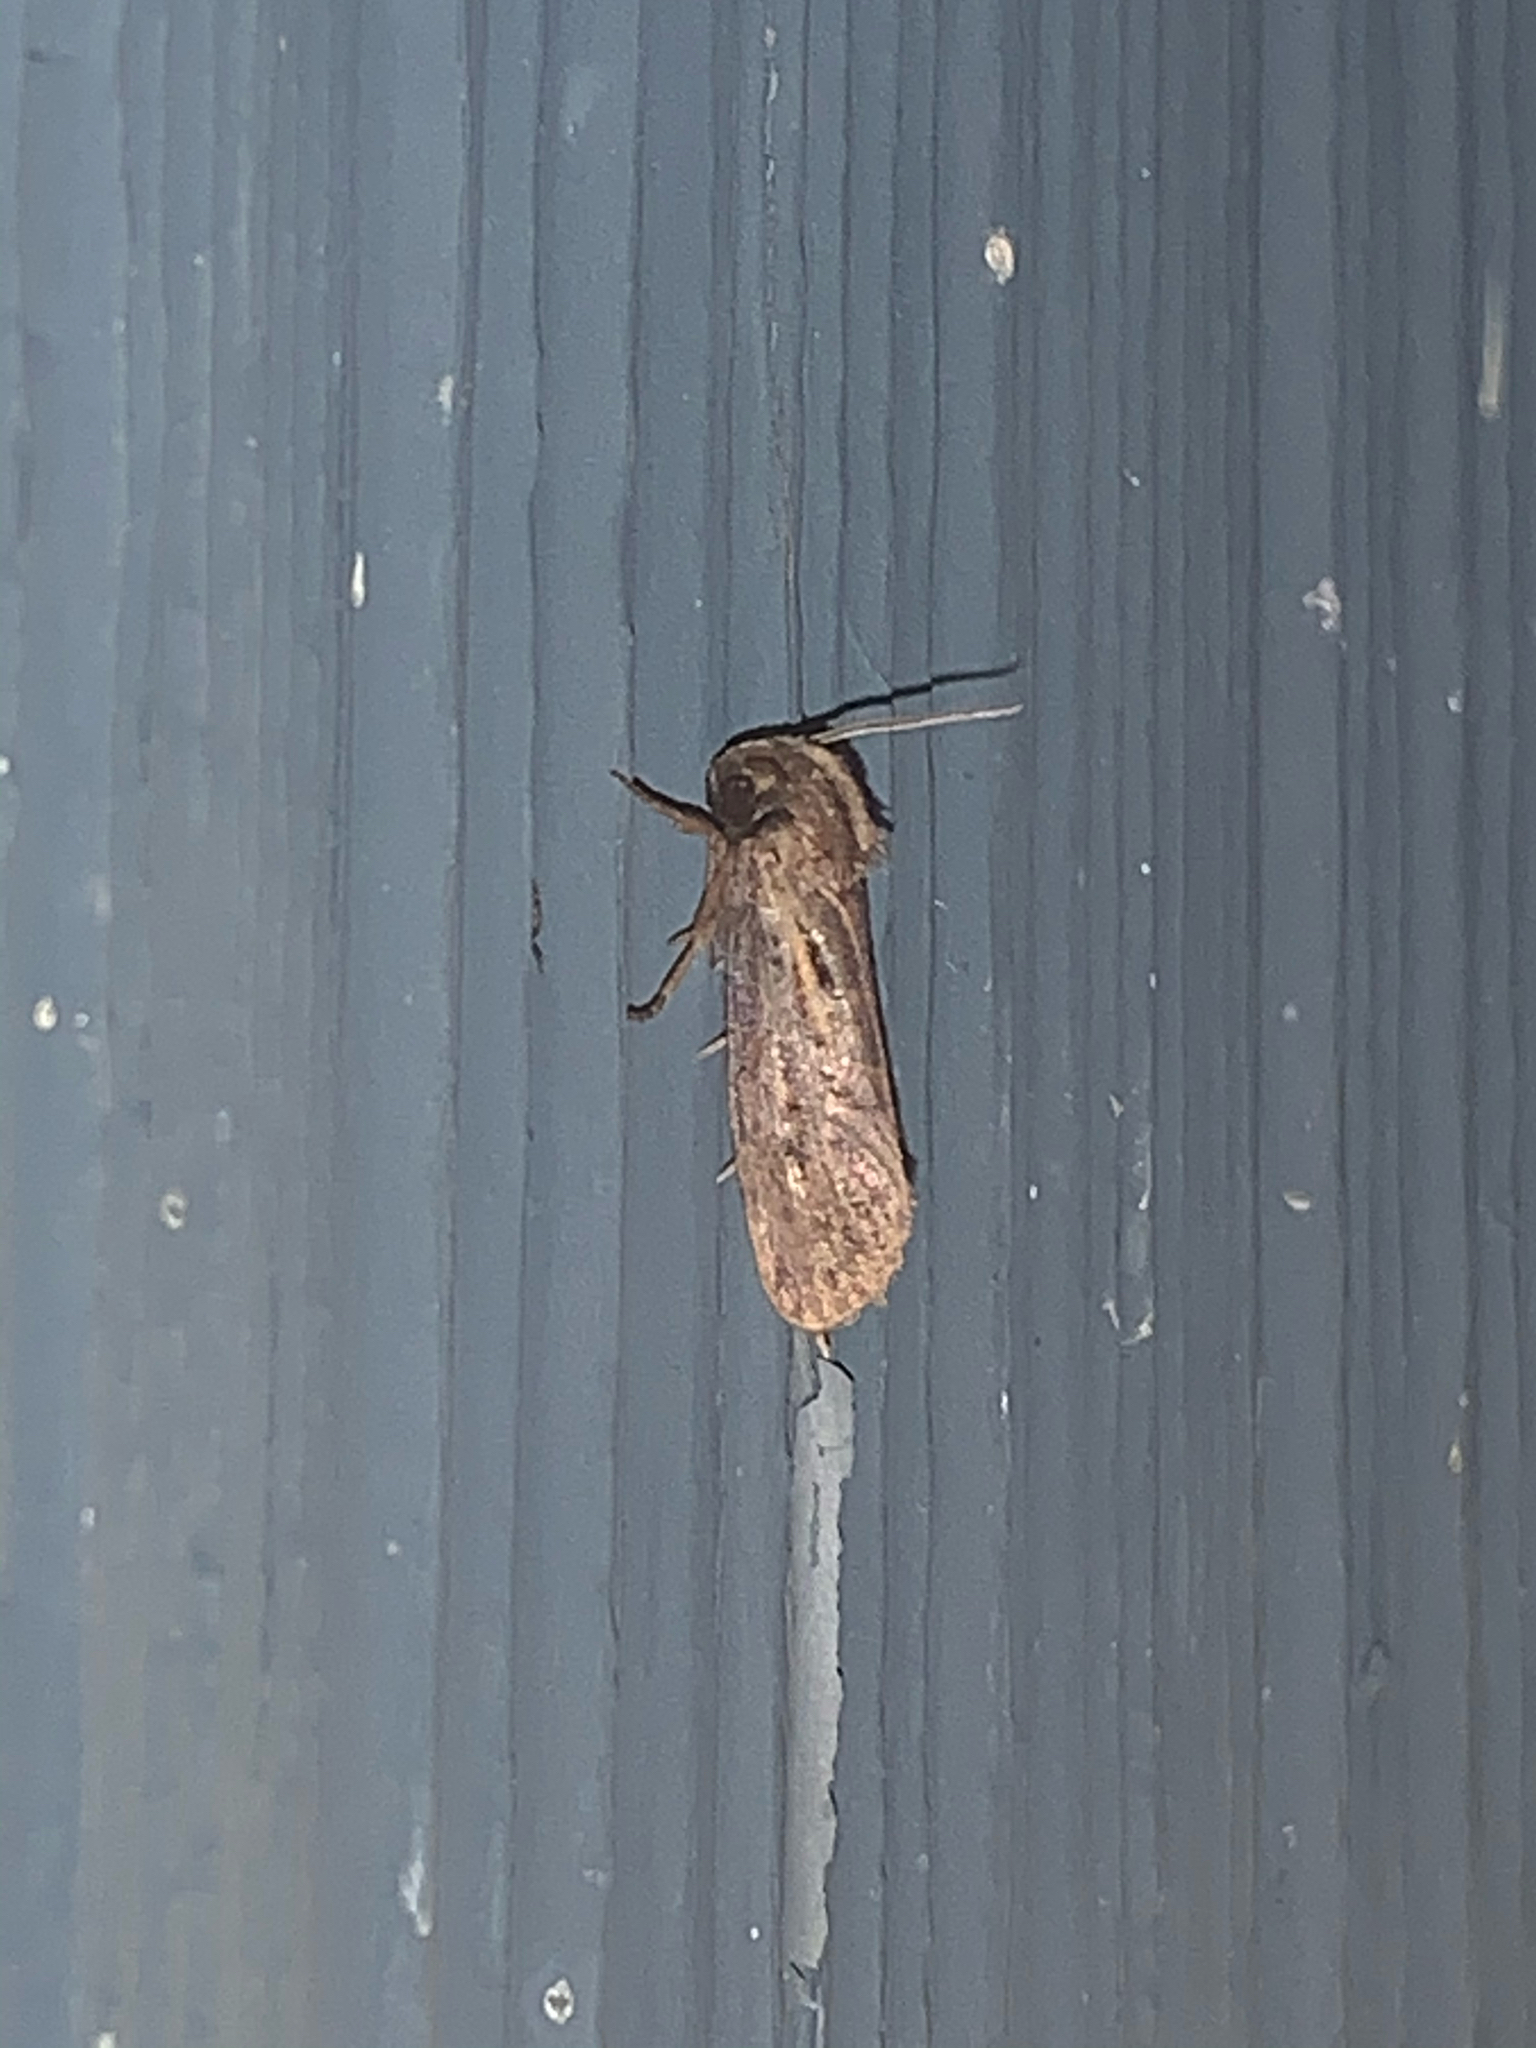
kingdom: Animalia
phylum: Arthropoda
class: Insecta
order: Lepidoptera
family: Tineidae
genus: Acrolophus
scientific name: Acrolophus popeanella
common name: Clemens' grass tubeworm moth
